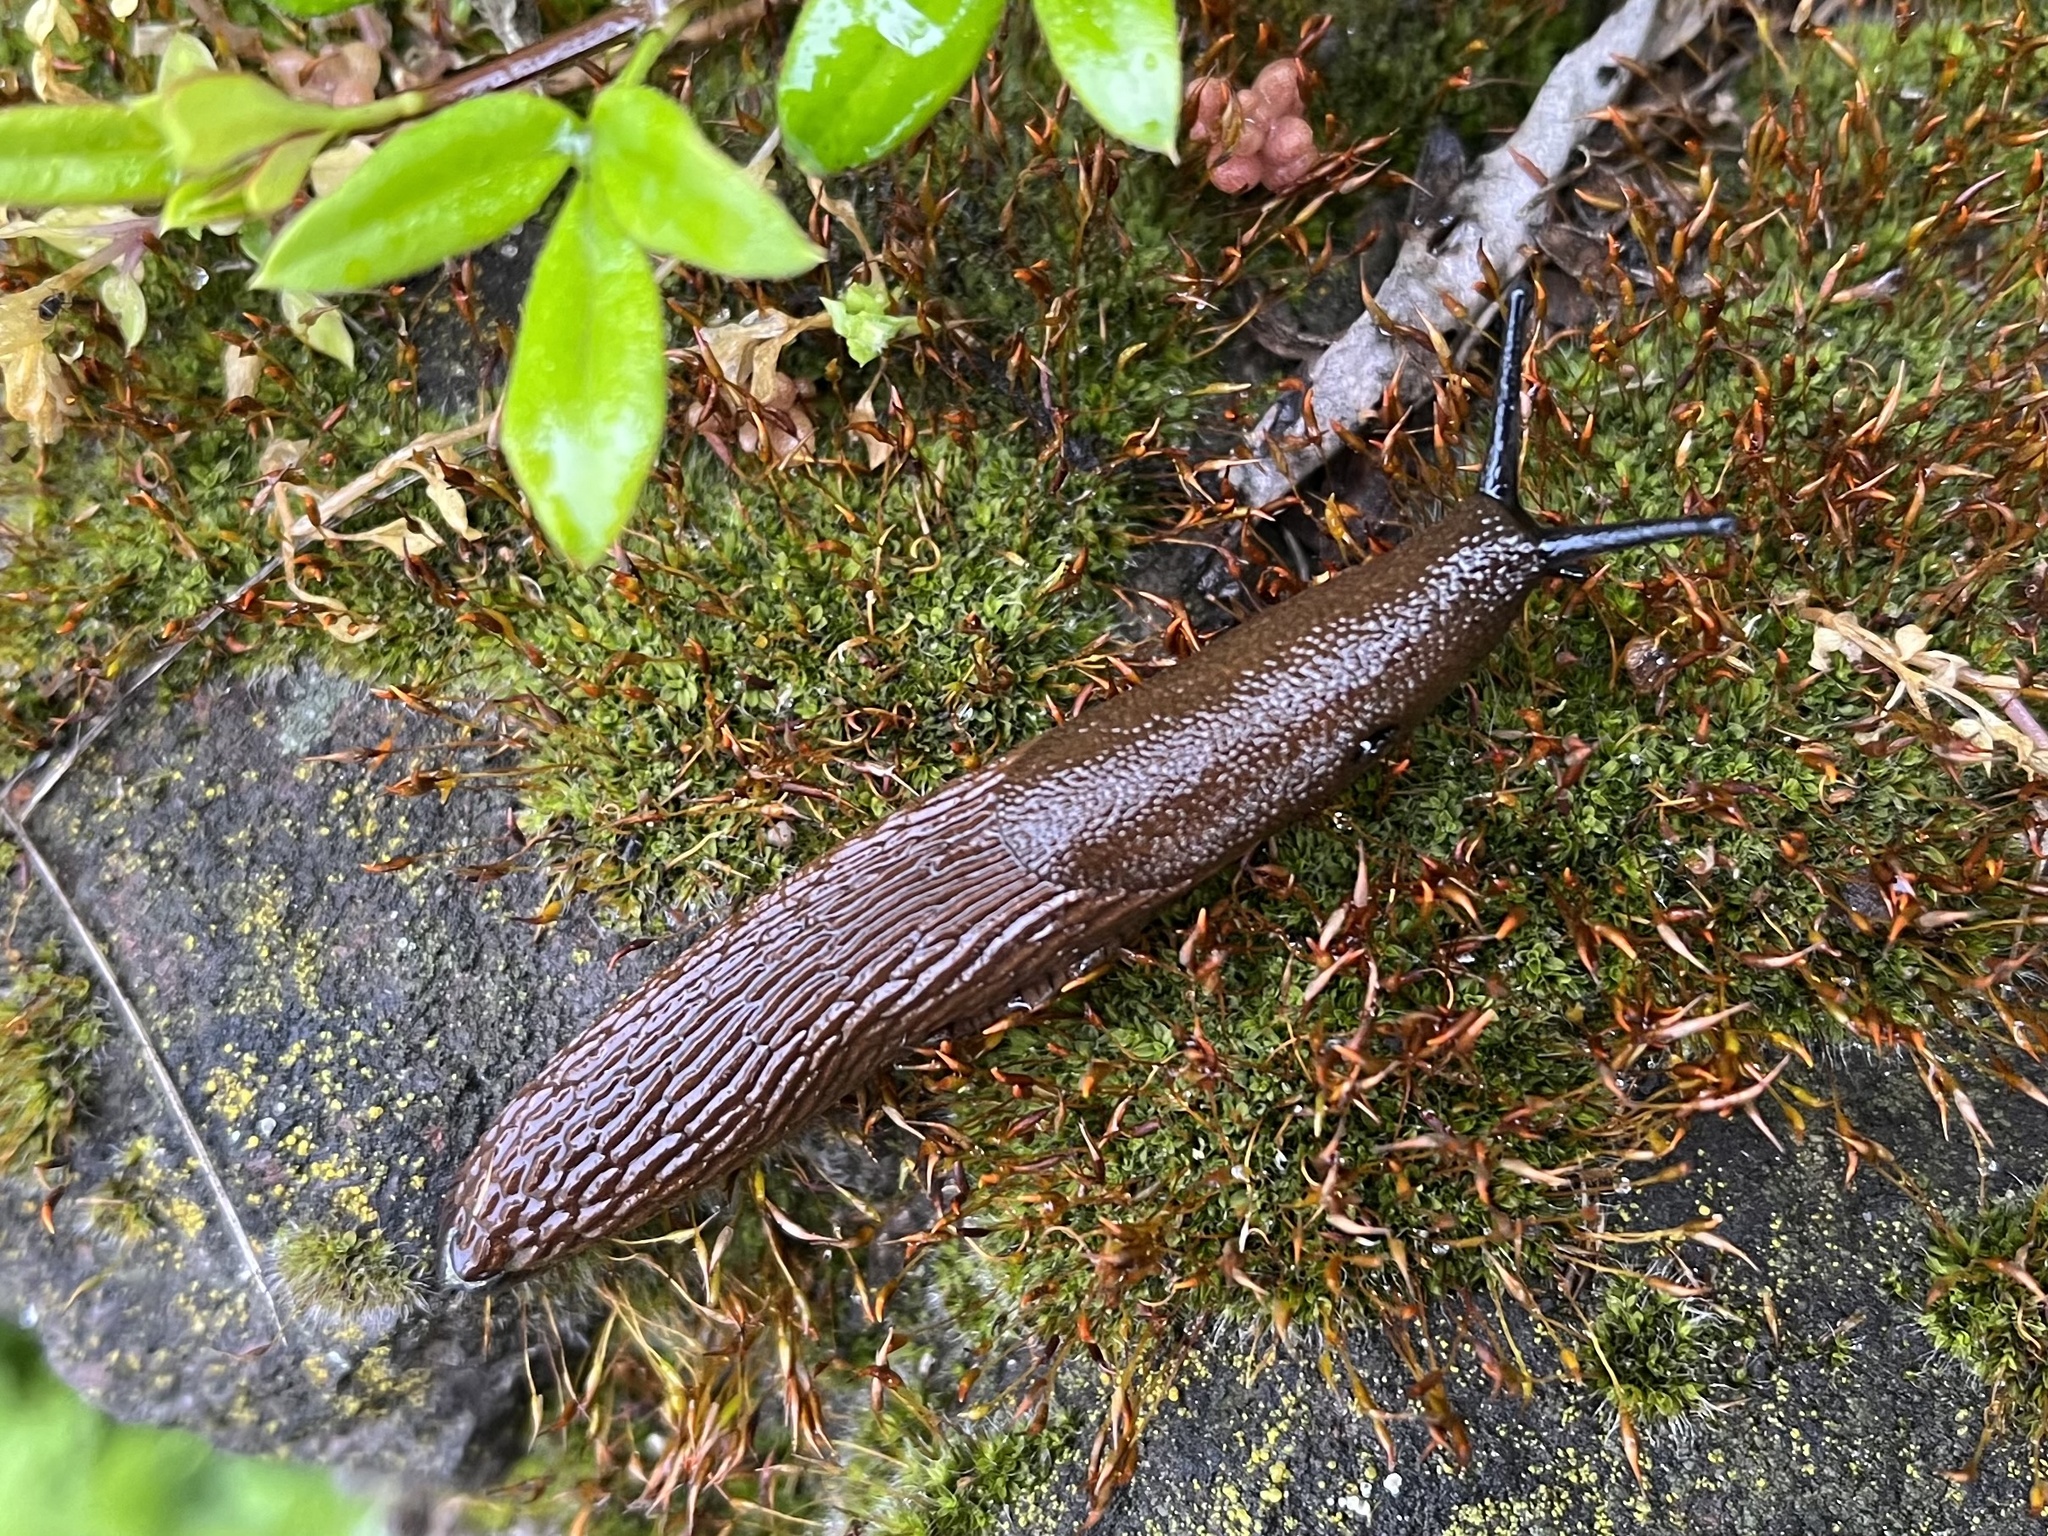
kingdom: Animalia
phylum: Mollusca
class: Gastropoda
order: Stylommatophora
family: Arionidae
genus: Arion
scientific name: Arion vulgaris
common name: Lusitanian slug
